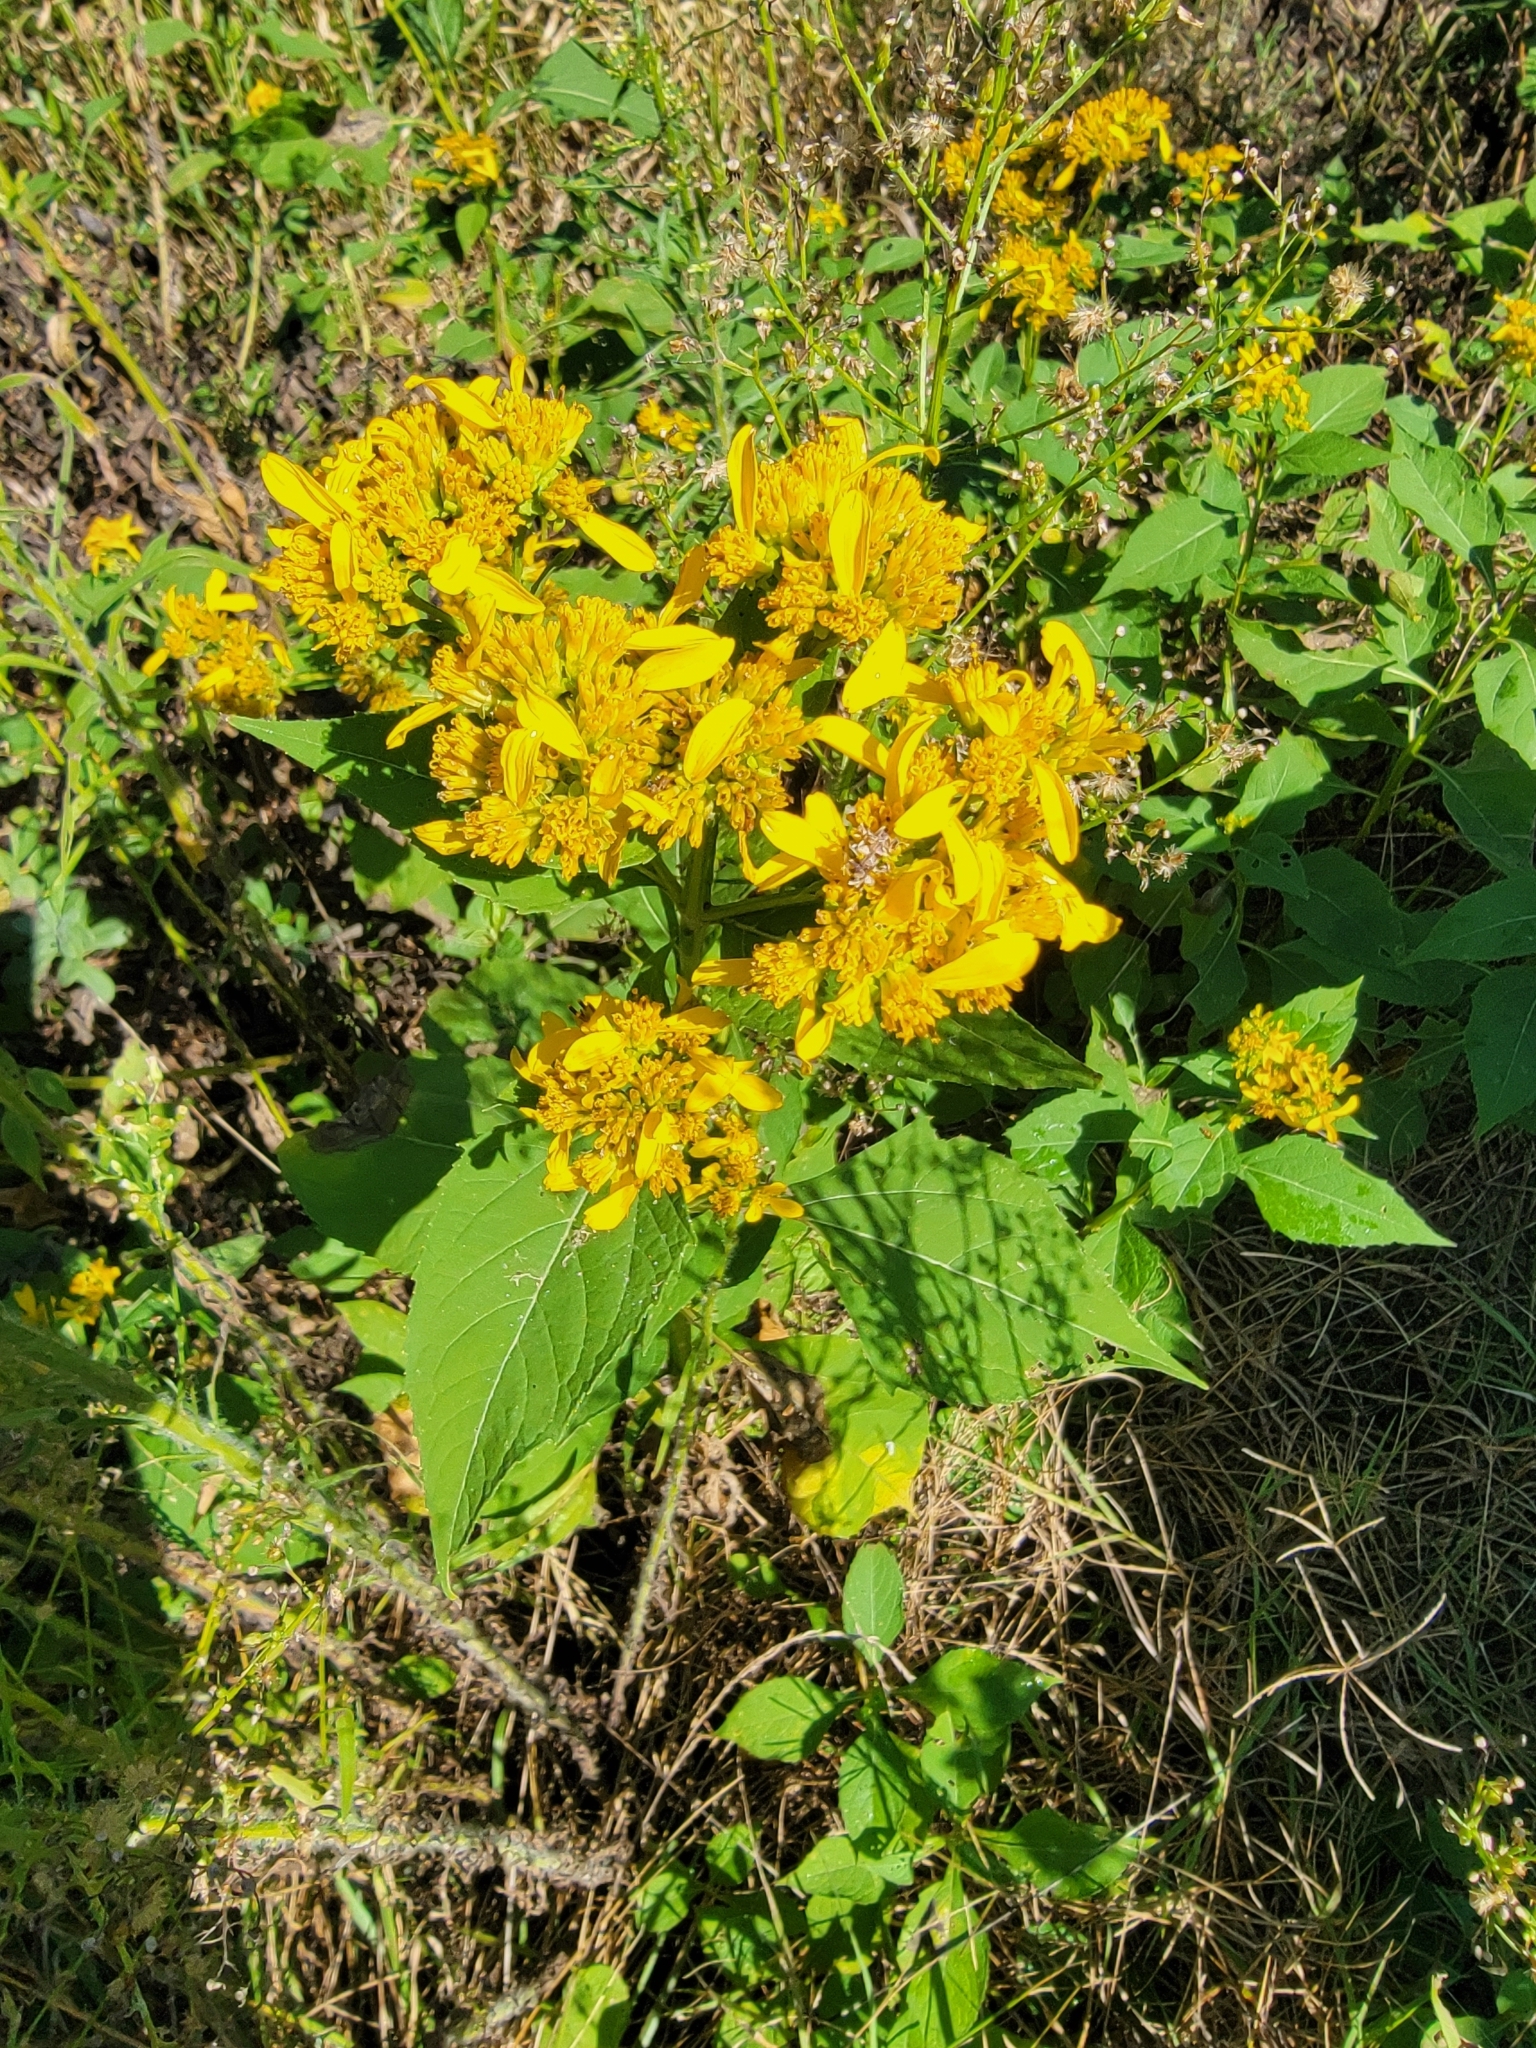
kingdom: Plantae
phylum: Tracheophyta
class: Magnoliopsida
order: Asterales
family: Asteraceae
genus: Verbesina
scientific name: Verbesina occidentalis
